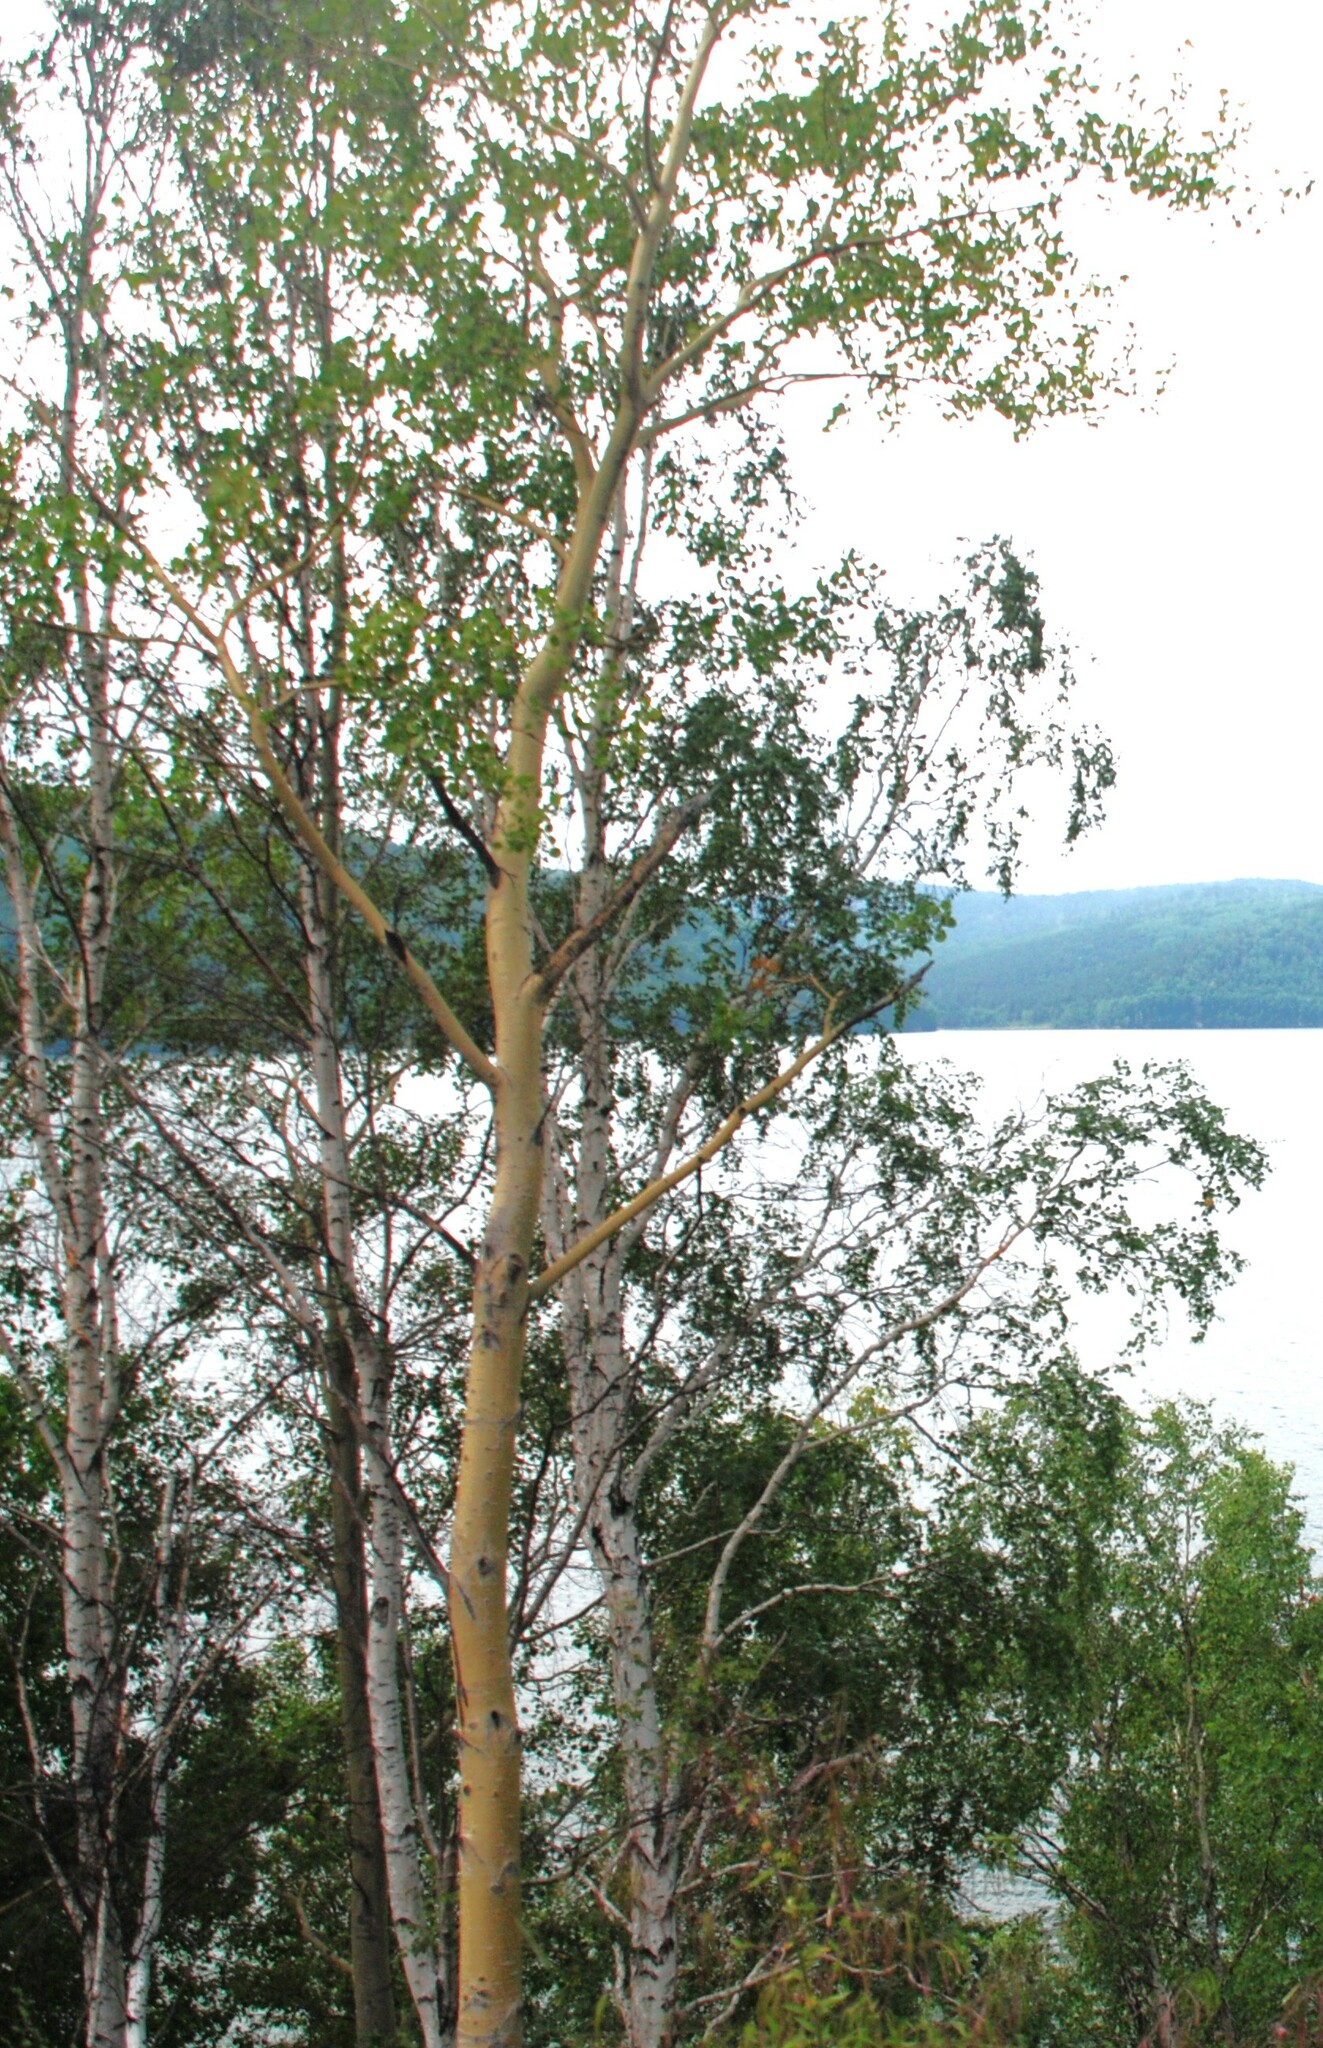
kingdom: Plantae
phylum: Tracheophyta
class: Magnoliopsida
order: Malpighiales
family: Salicaceae
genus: Populus
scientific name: Populus tremula
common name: European aspen
